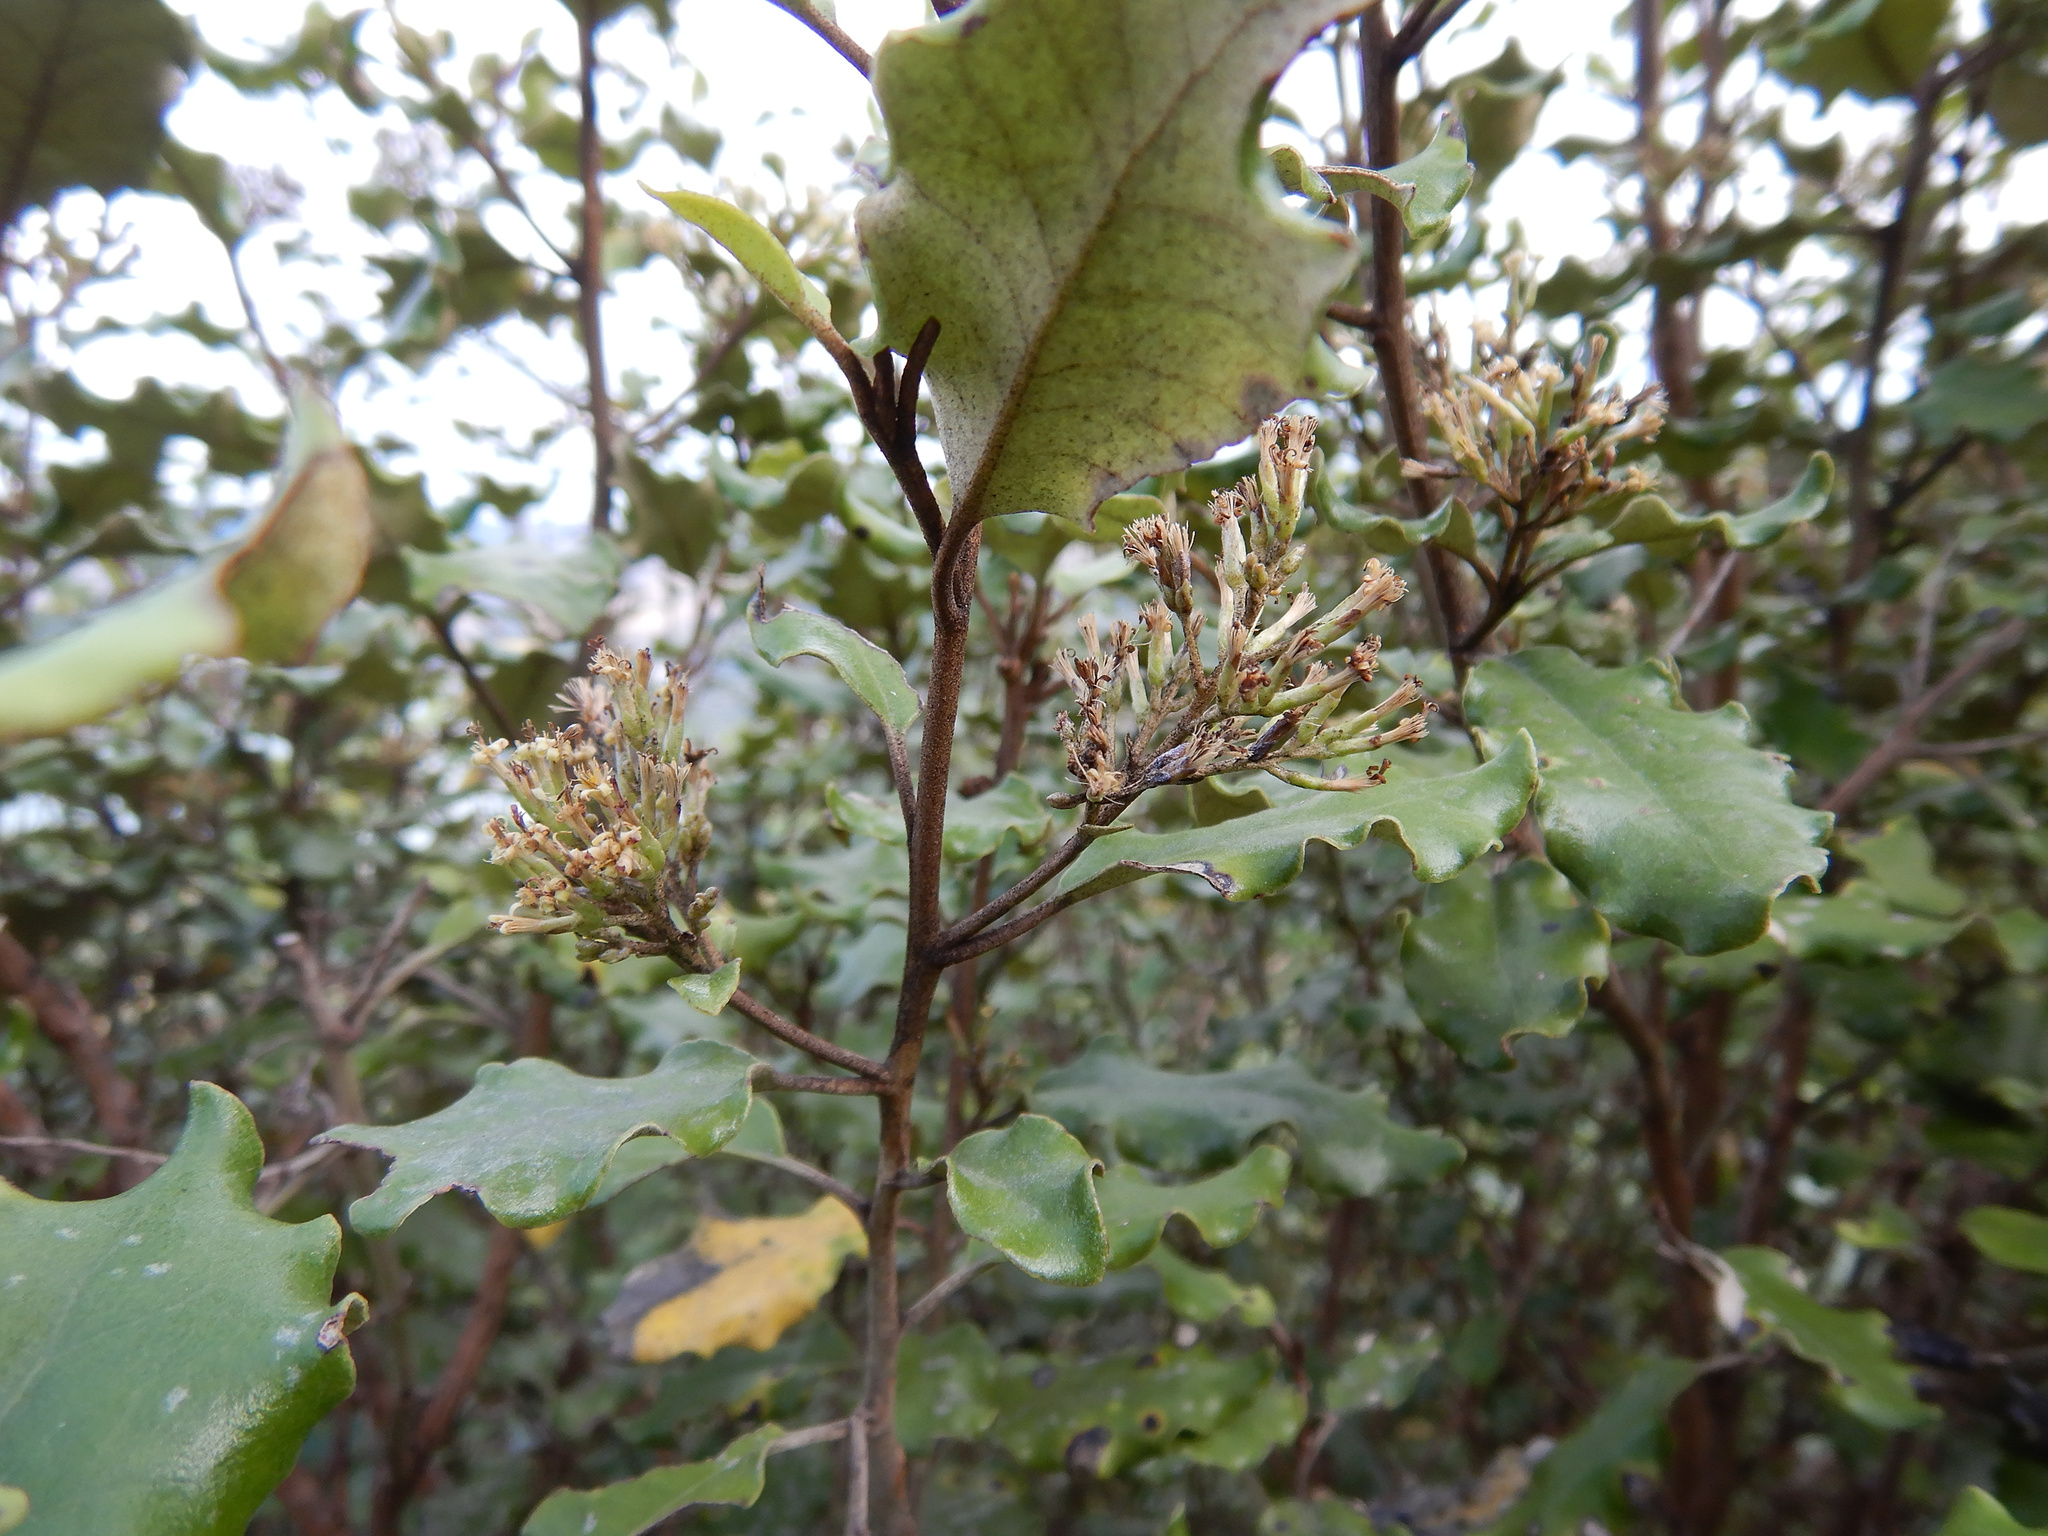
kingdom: Plantae
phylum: Tracheophyta
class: Magnoliopsida
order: Asterales
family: Asteraceae
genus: Olearia
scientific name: Olearia paniculata
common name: Akiraho
